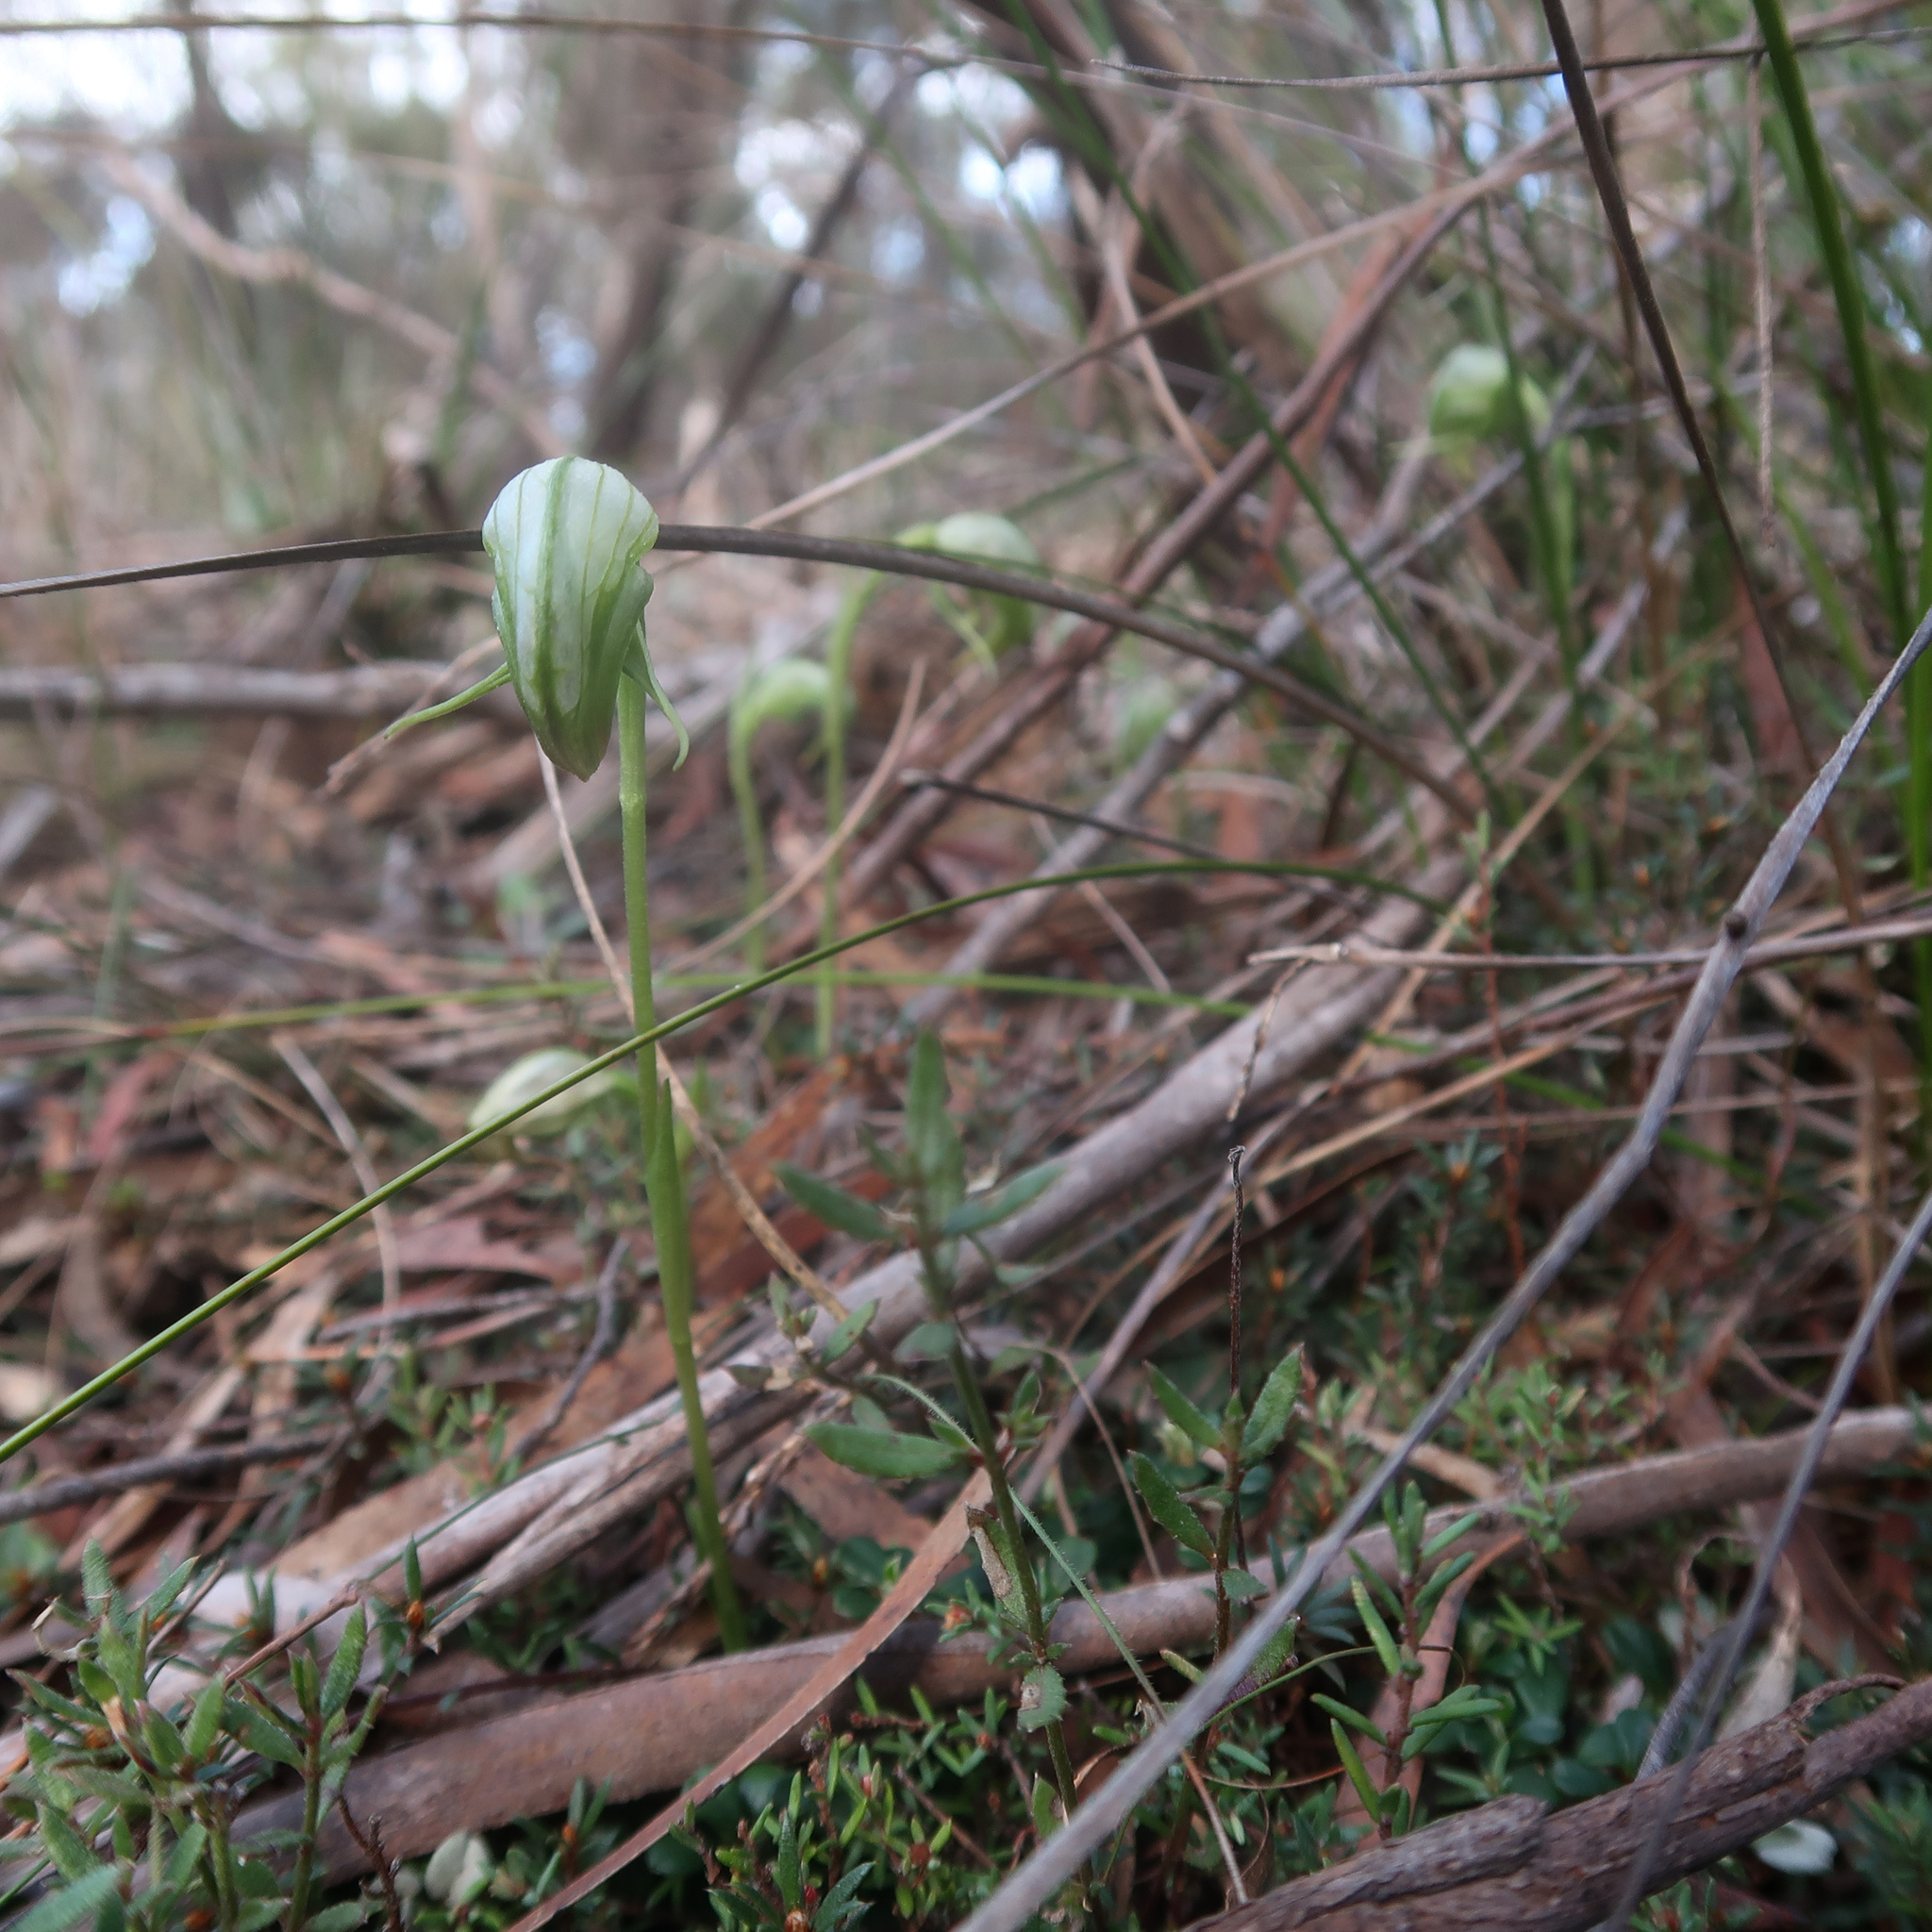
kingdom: Plantae
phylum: Tracheophyta
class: Liliopsida
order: Asparagales
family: Orchidaceae
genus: Pterostylis
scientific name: Pterostylis nutans
